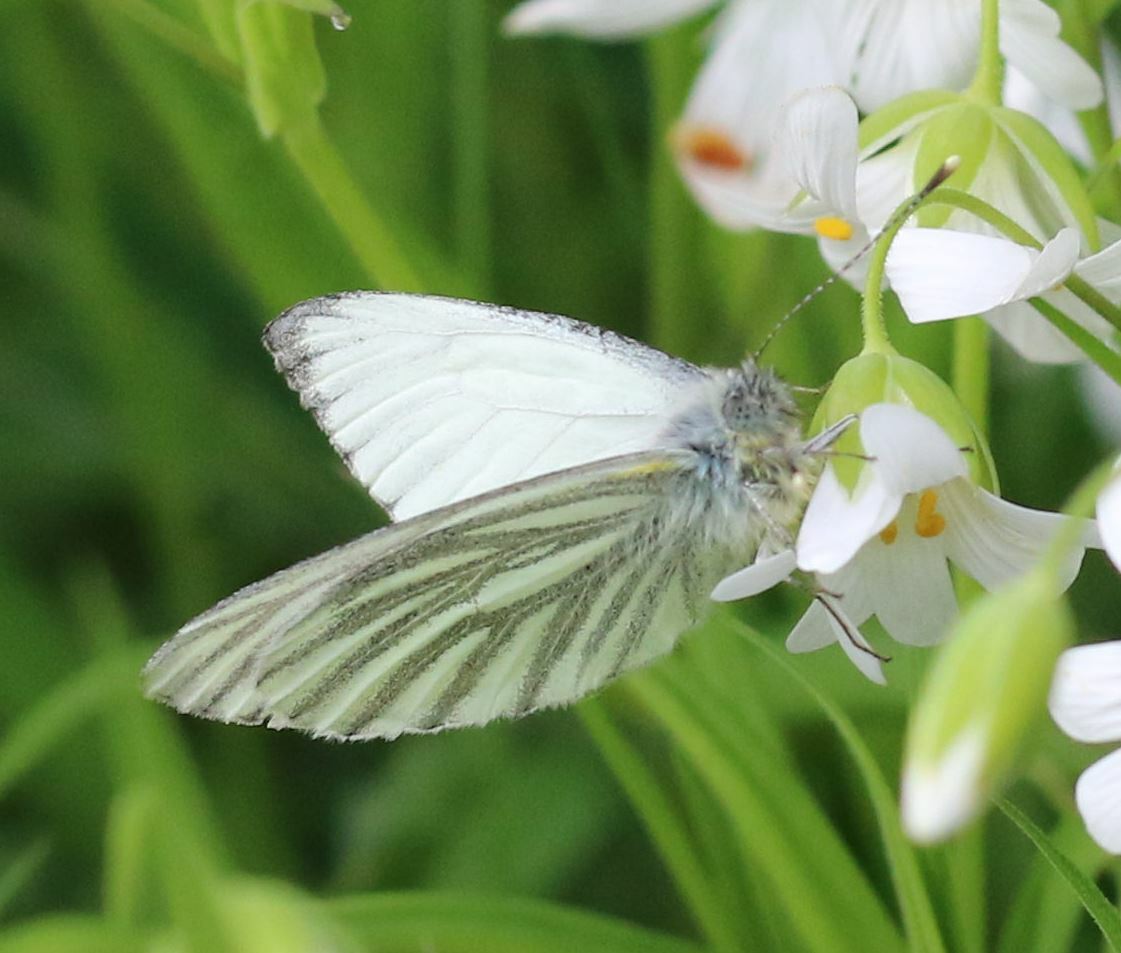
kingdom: Animalia
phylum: Arthropoda
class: Insecta
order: Lepidoptera
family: Pieridae
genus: Pieris
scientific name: Pieris napi
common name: Green-veined white
